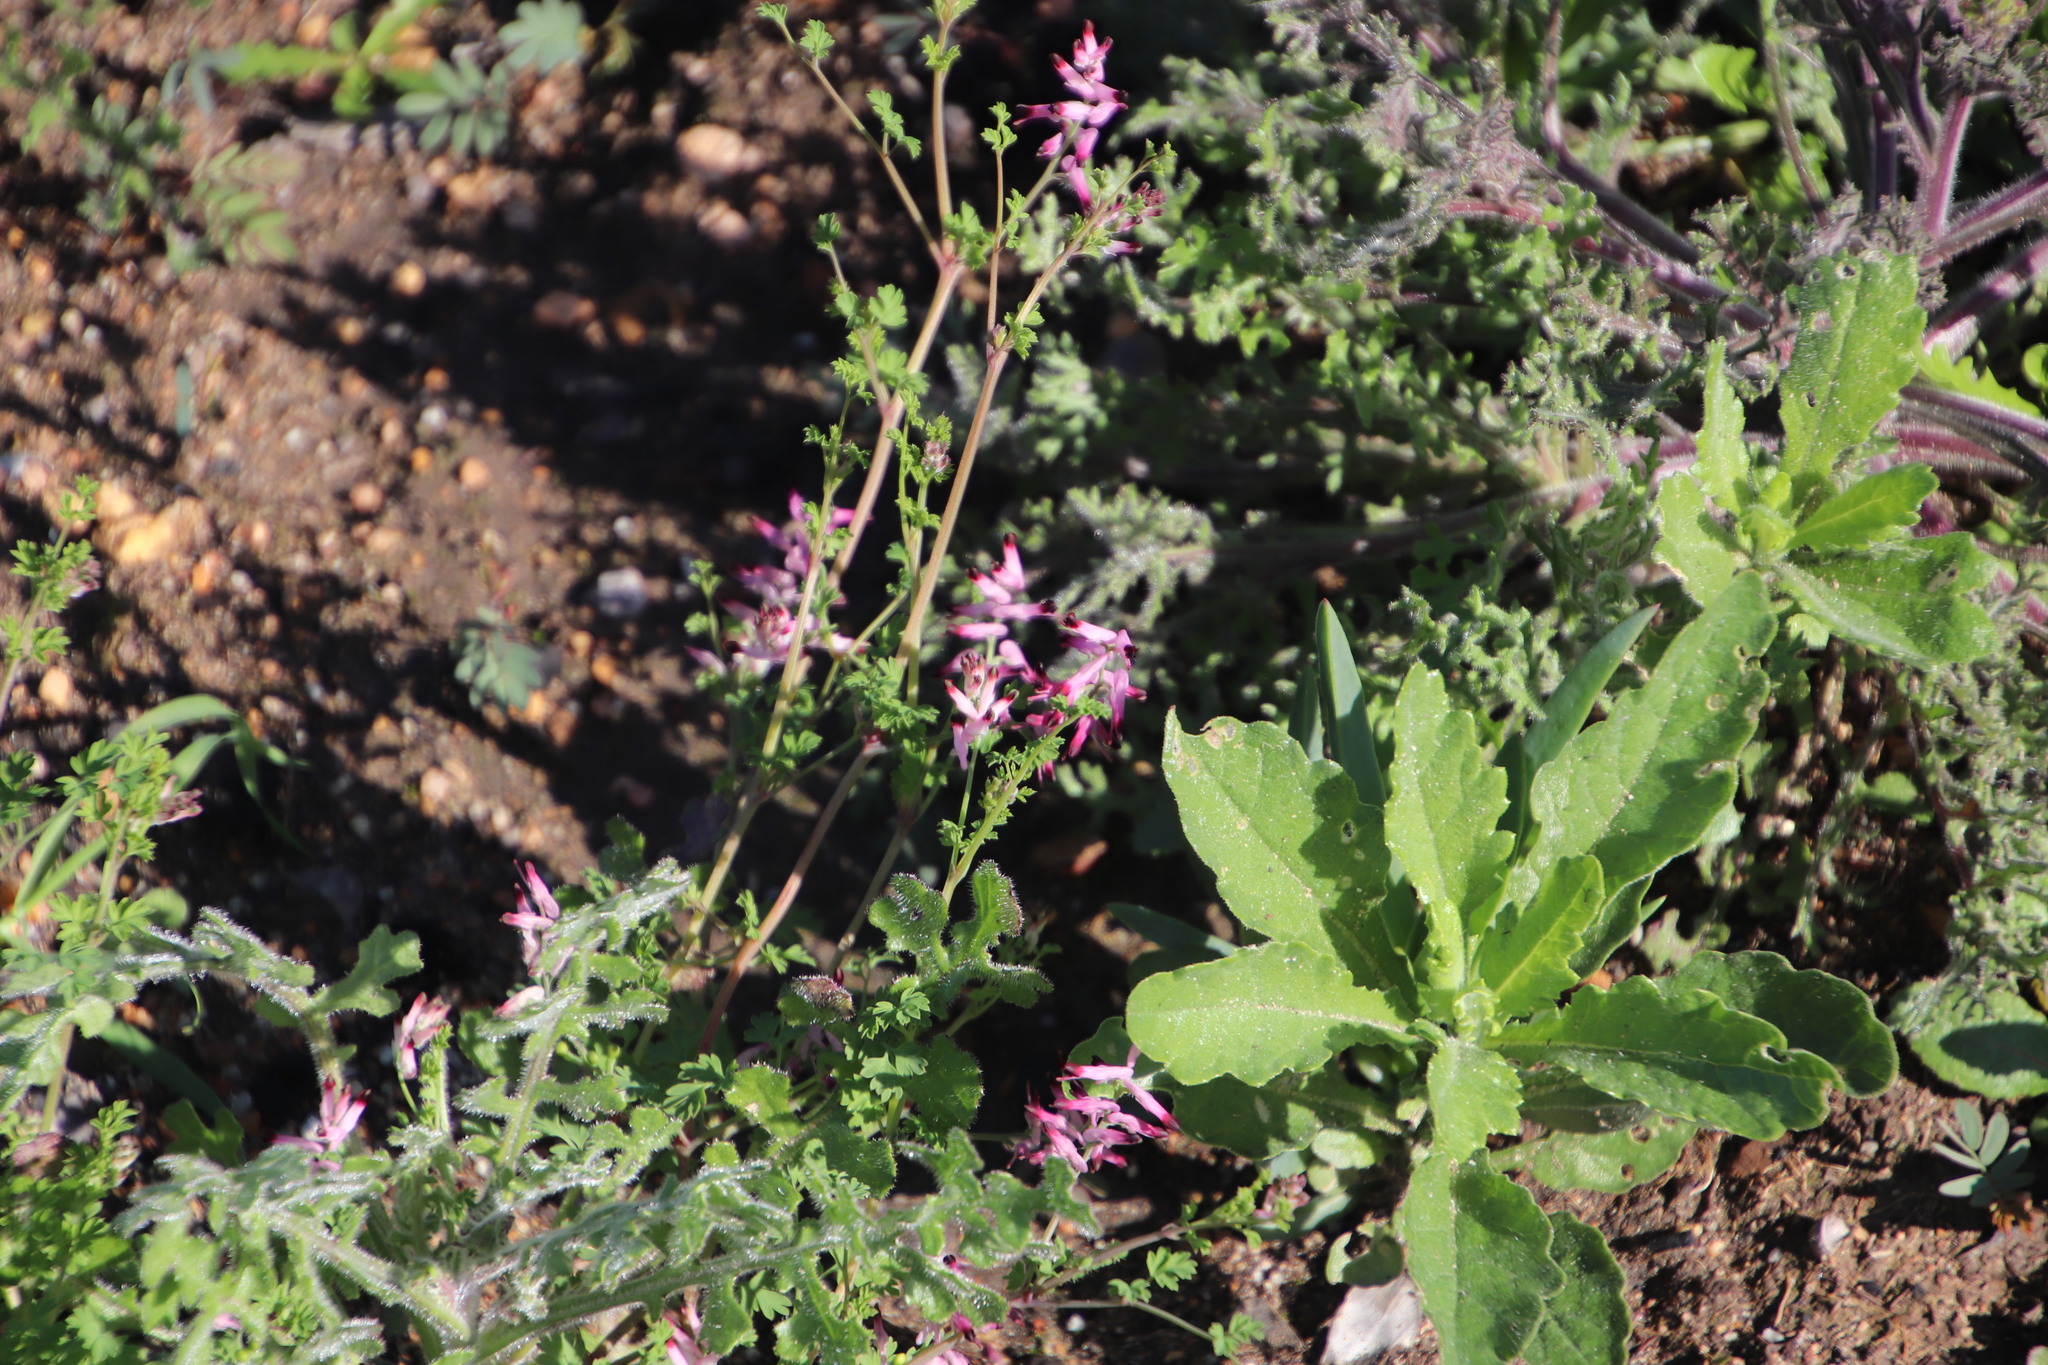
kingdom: Plantae
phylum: Tracheophyta
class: Magnoliopsida
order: Ranunculales
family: Papaveraceae
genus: Fumaria
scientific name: Fumaria muralis
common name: Common ramping-fumitory
